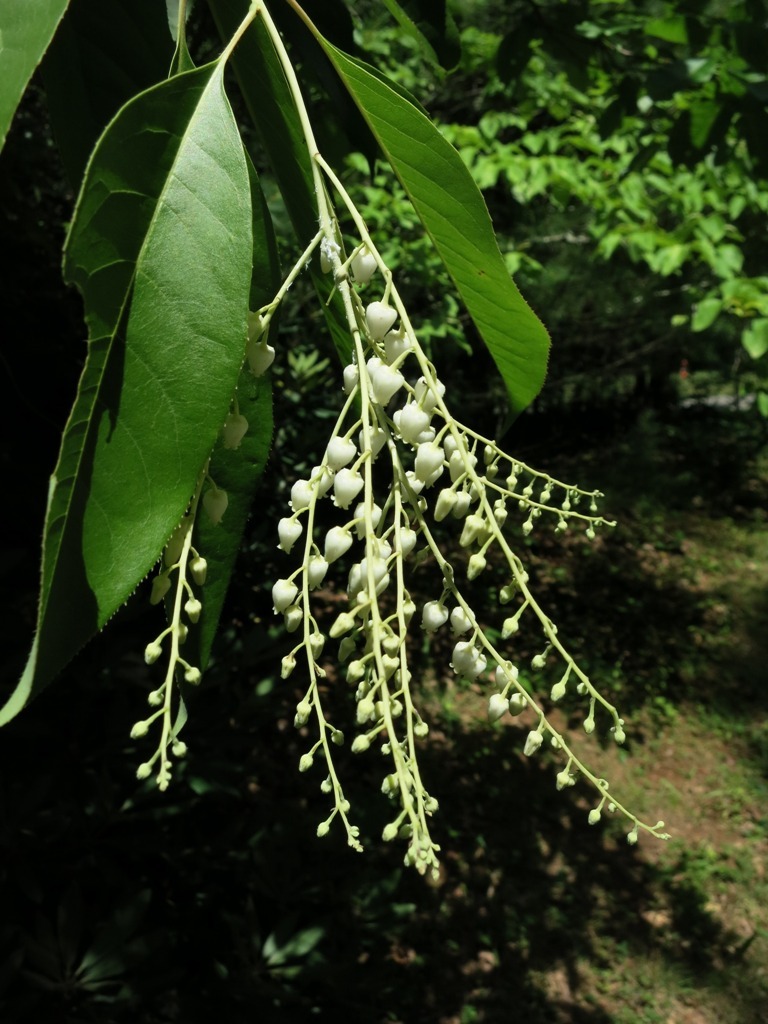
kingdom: Plantae
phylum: Tracheophyta
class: Magnoliopsida
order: Ericales
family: Ericaceae
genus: Oxydendrum
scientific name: Oxydendrum arboreum
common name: Sourwood
